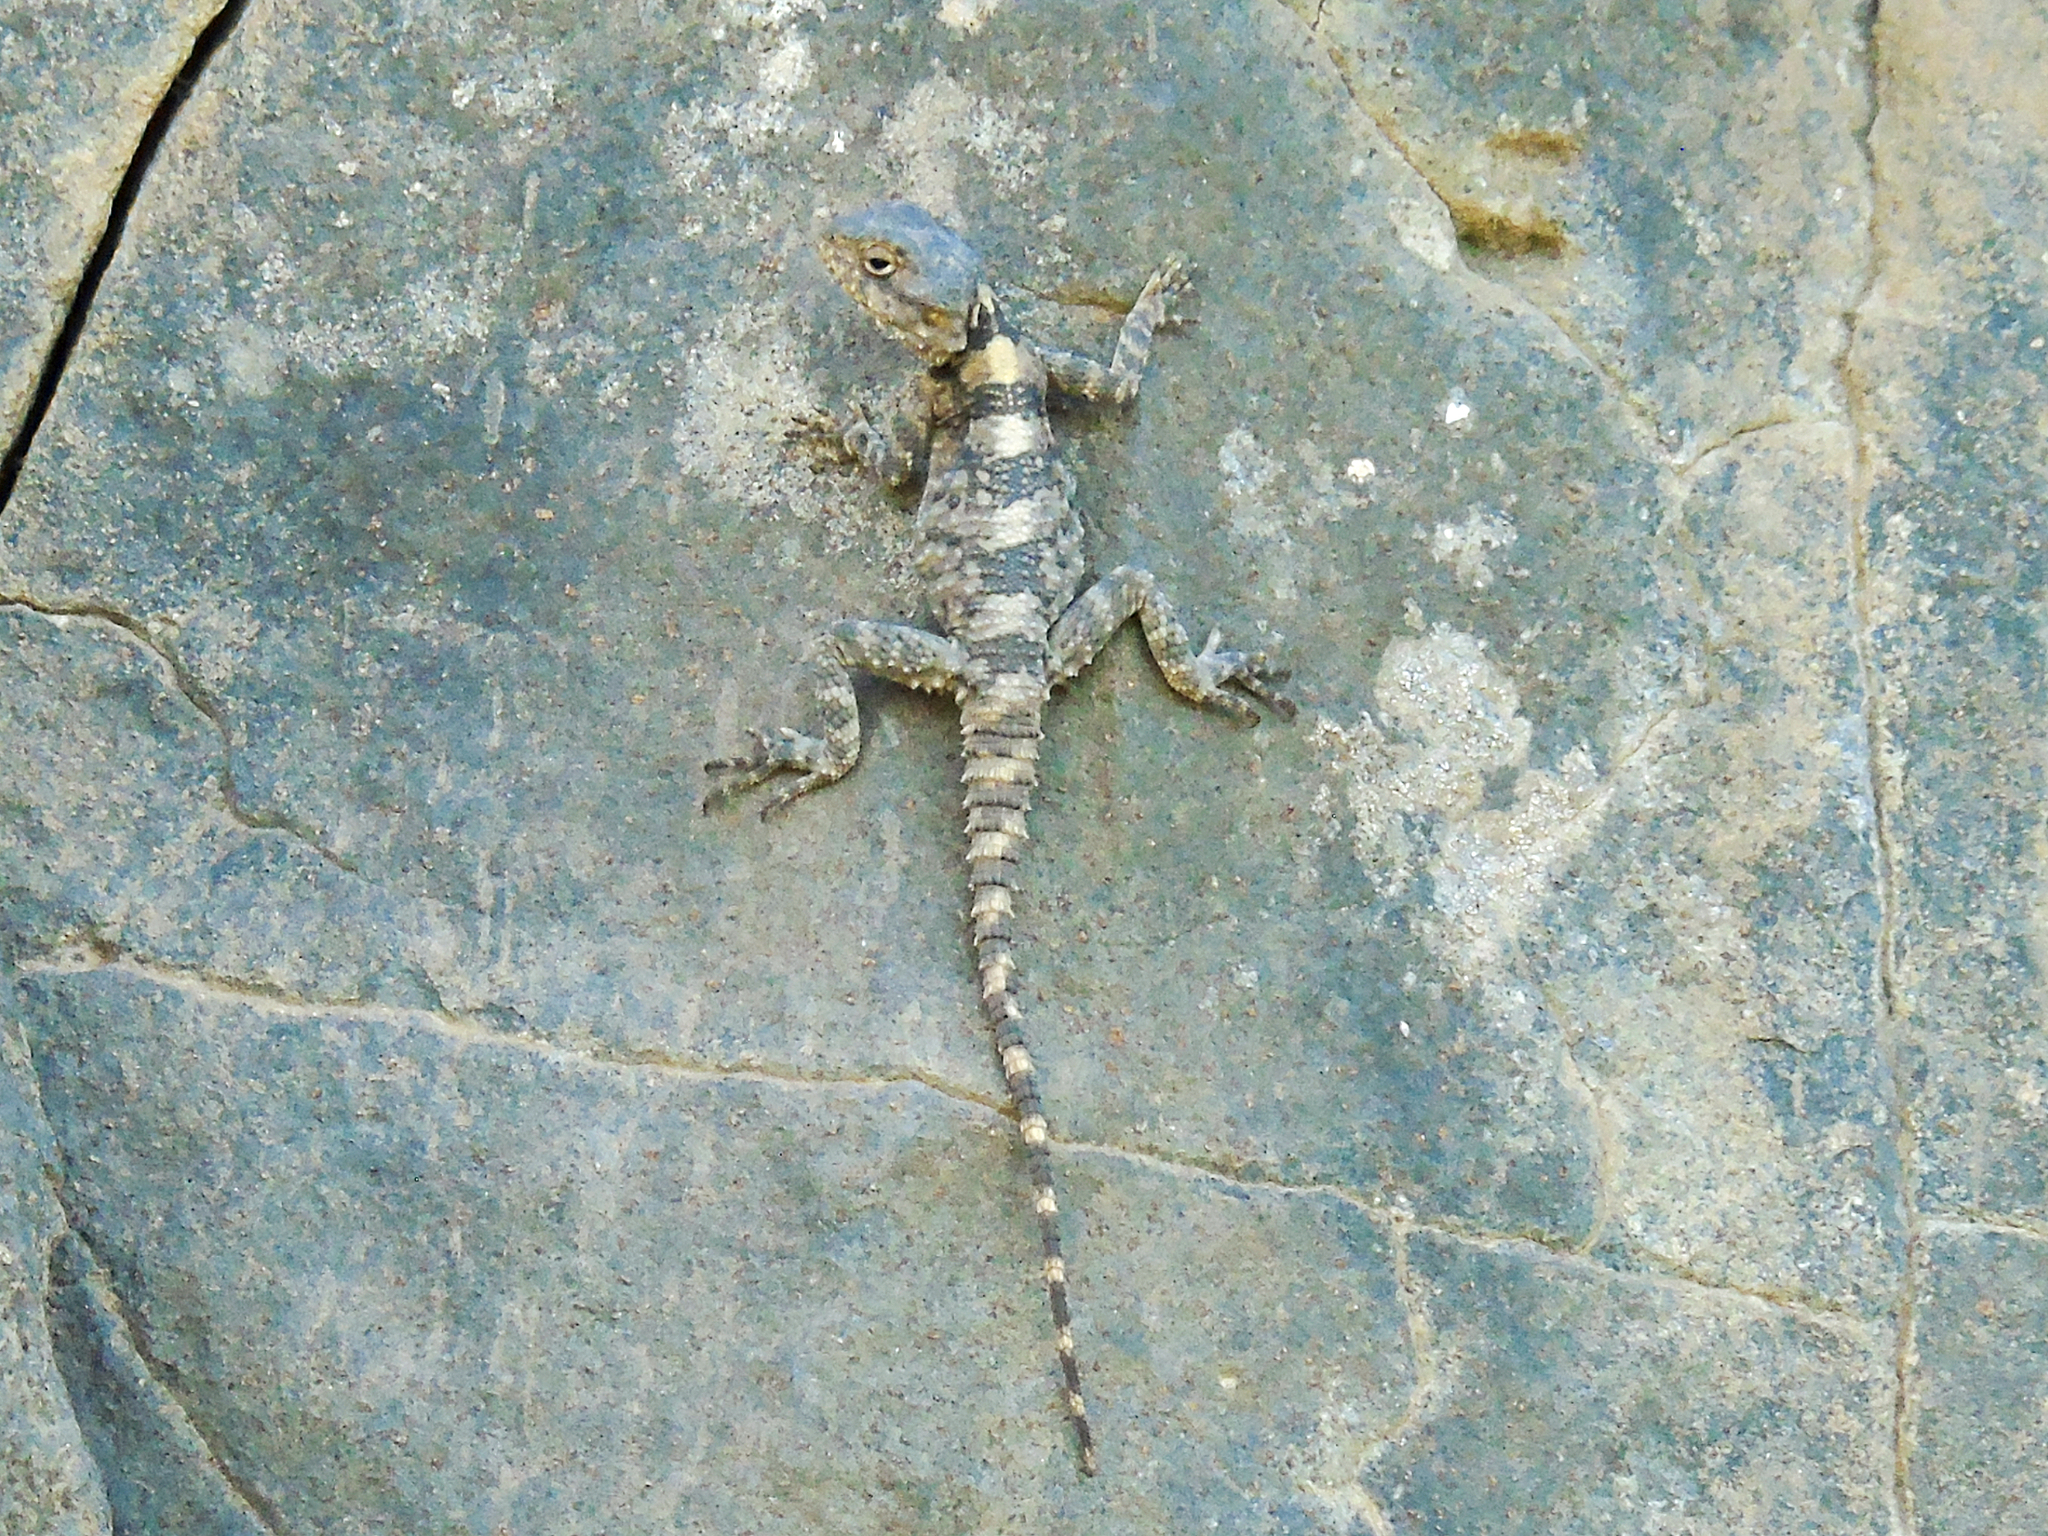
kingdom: Animalia
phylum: Chordata
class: Squamata
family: Agamidae
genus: Stellagama
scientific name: Stellagama stellio
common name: Starred agama
